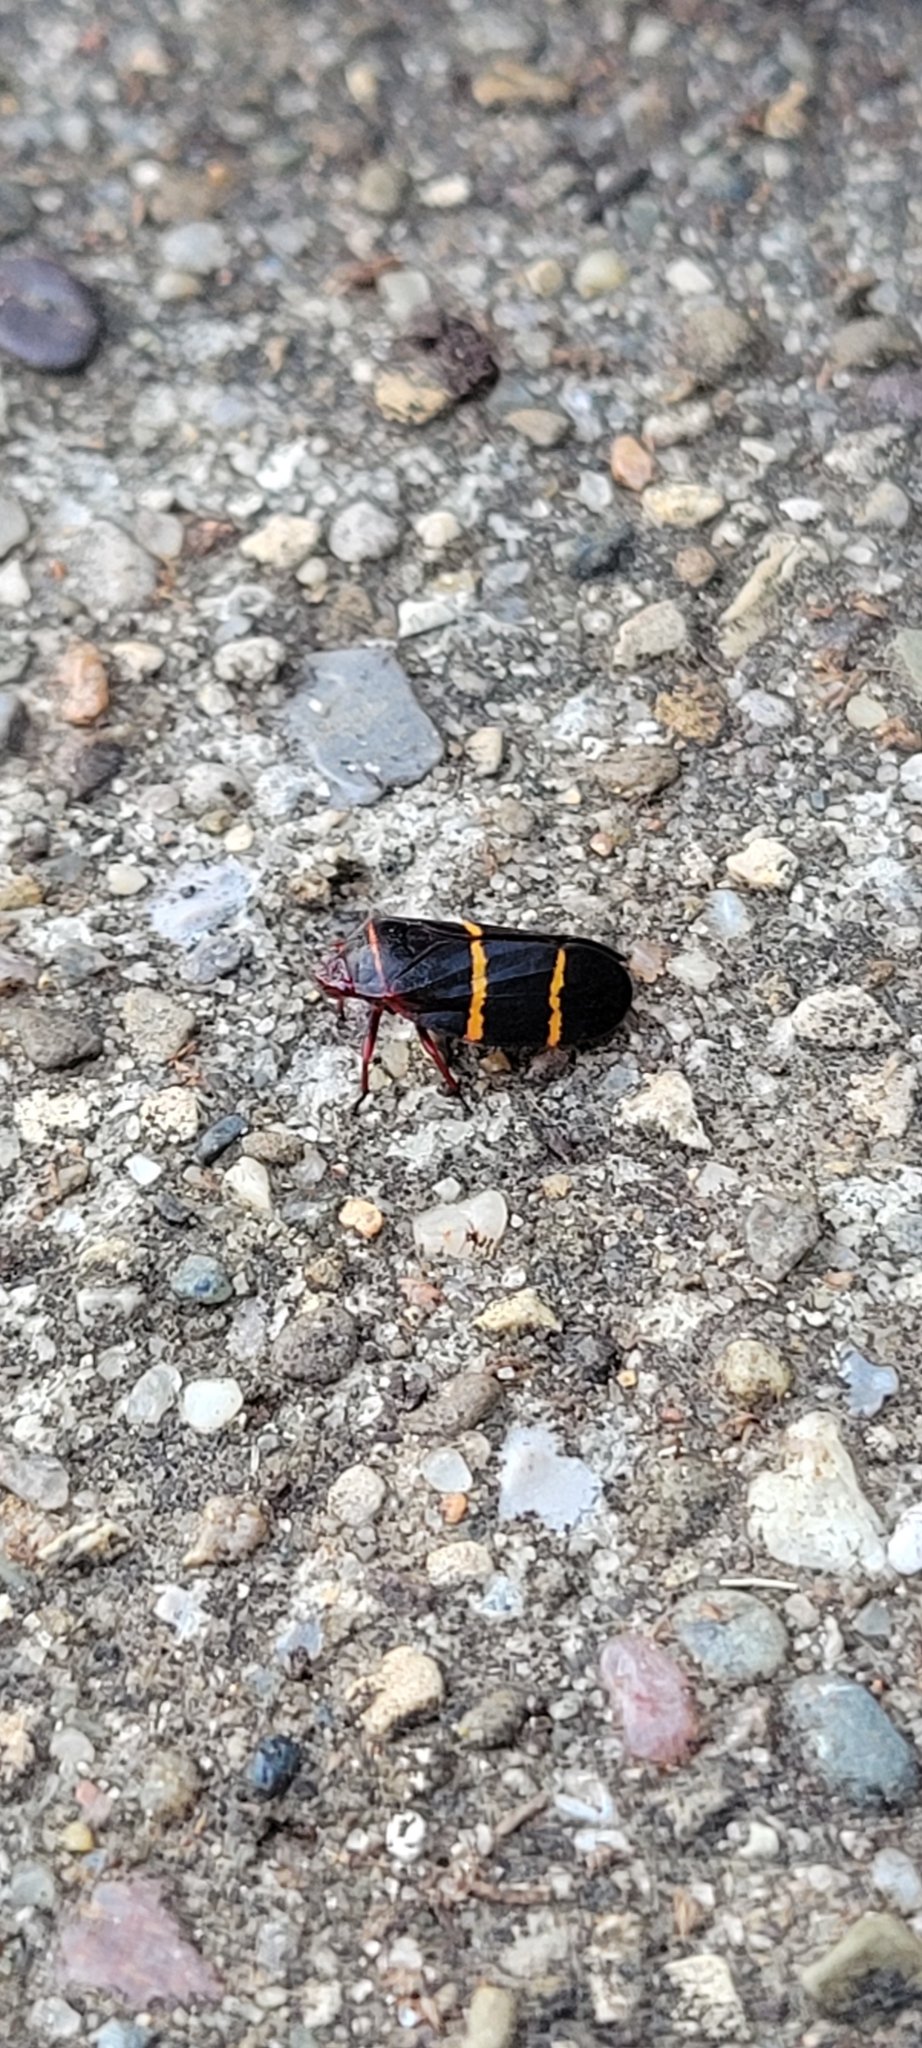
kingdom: Animalia
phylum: Arthropoda
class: Insecta
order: Hemiptera
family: Cercopidae
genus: Prosapia
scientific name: Prosapia bicincta
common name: Twolined spittlebug
